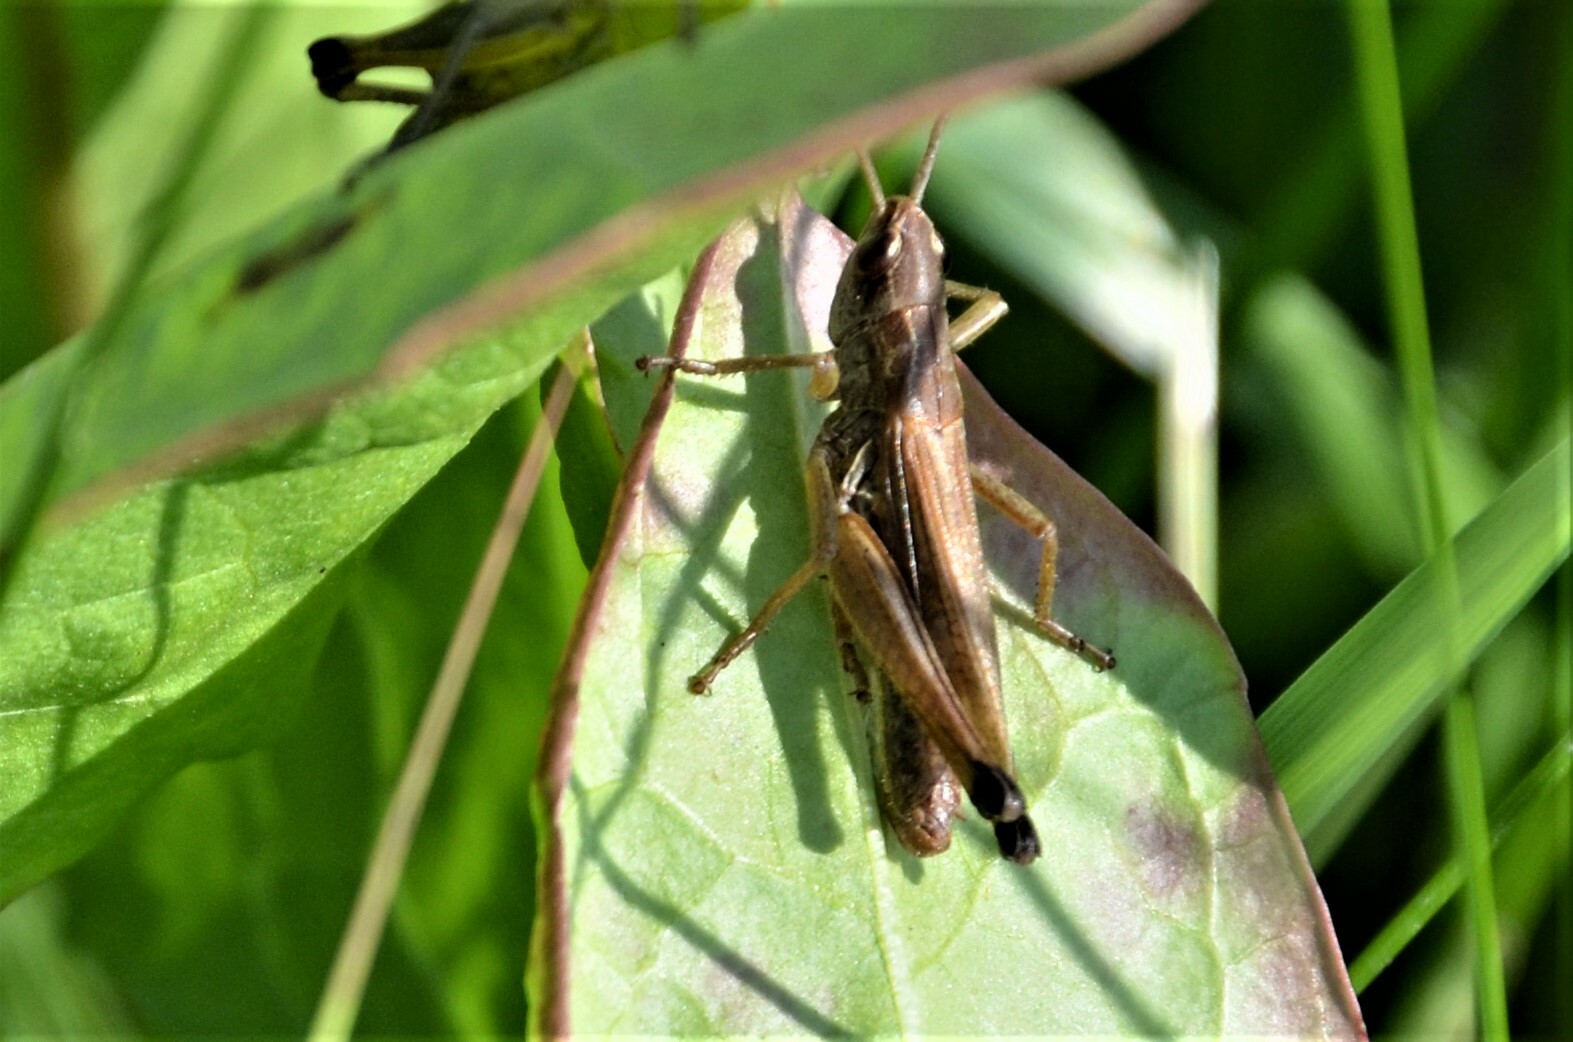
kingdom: Animalia
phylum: Arthropoda
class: Insecta
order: Orthoptera
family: Acrididae
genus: Pseudochorthippus
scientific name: Pseudochorthippus parallelus
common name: Meadow grasshopper
